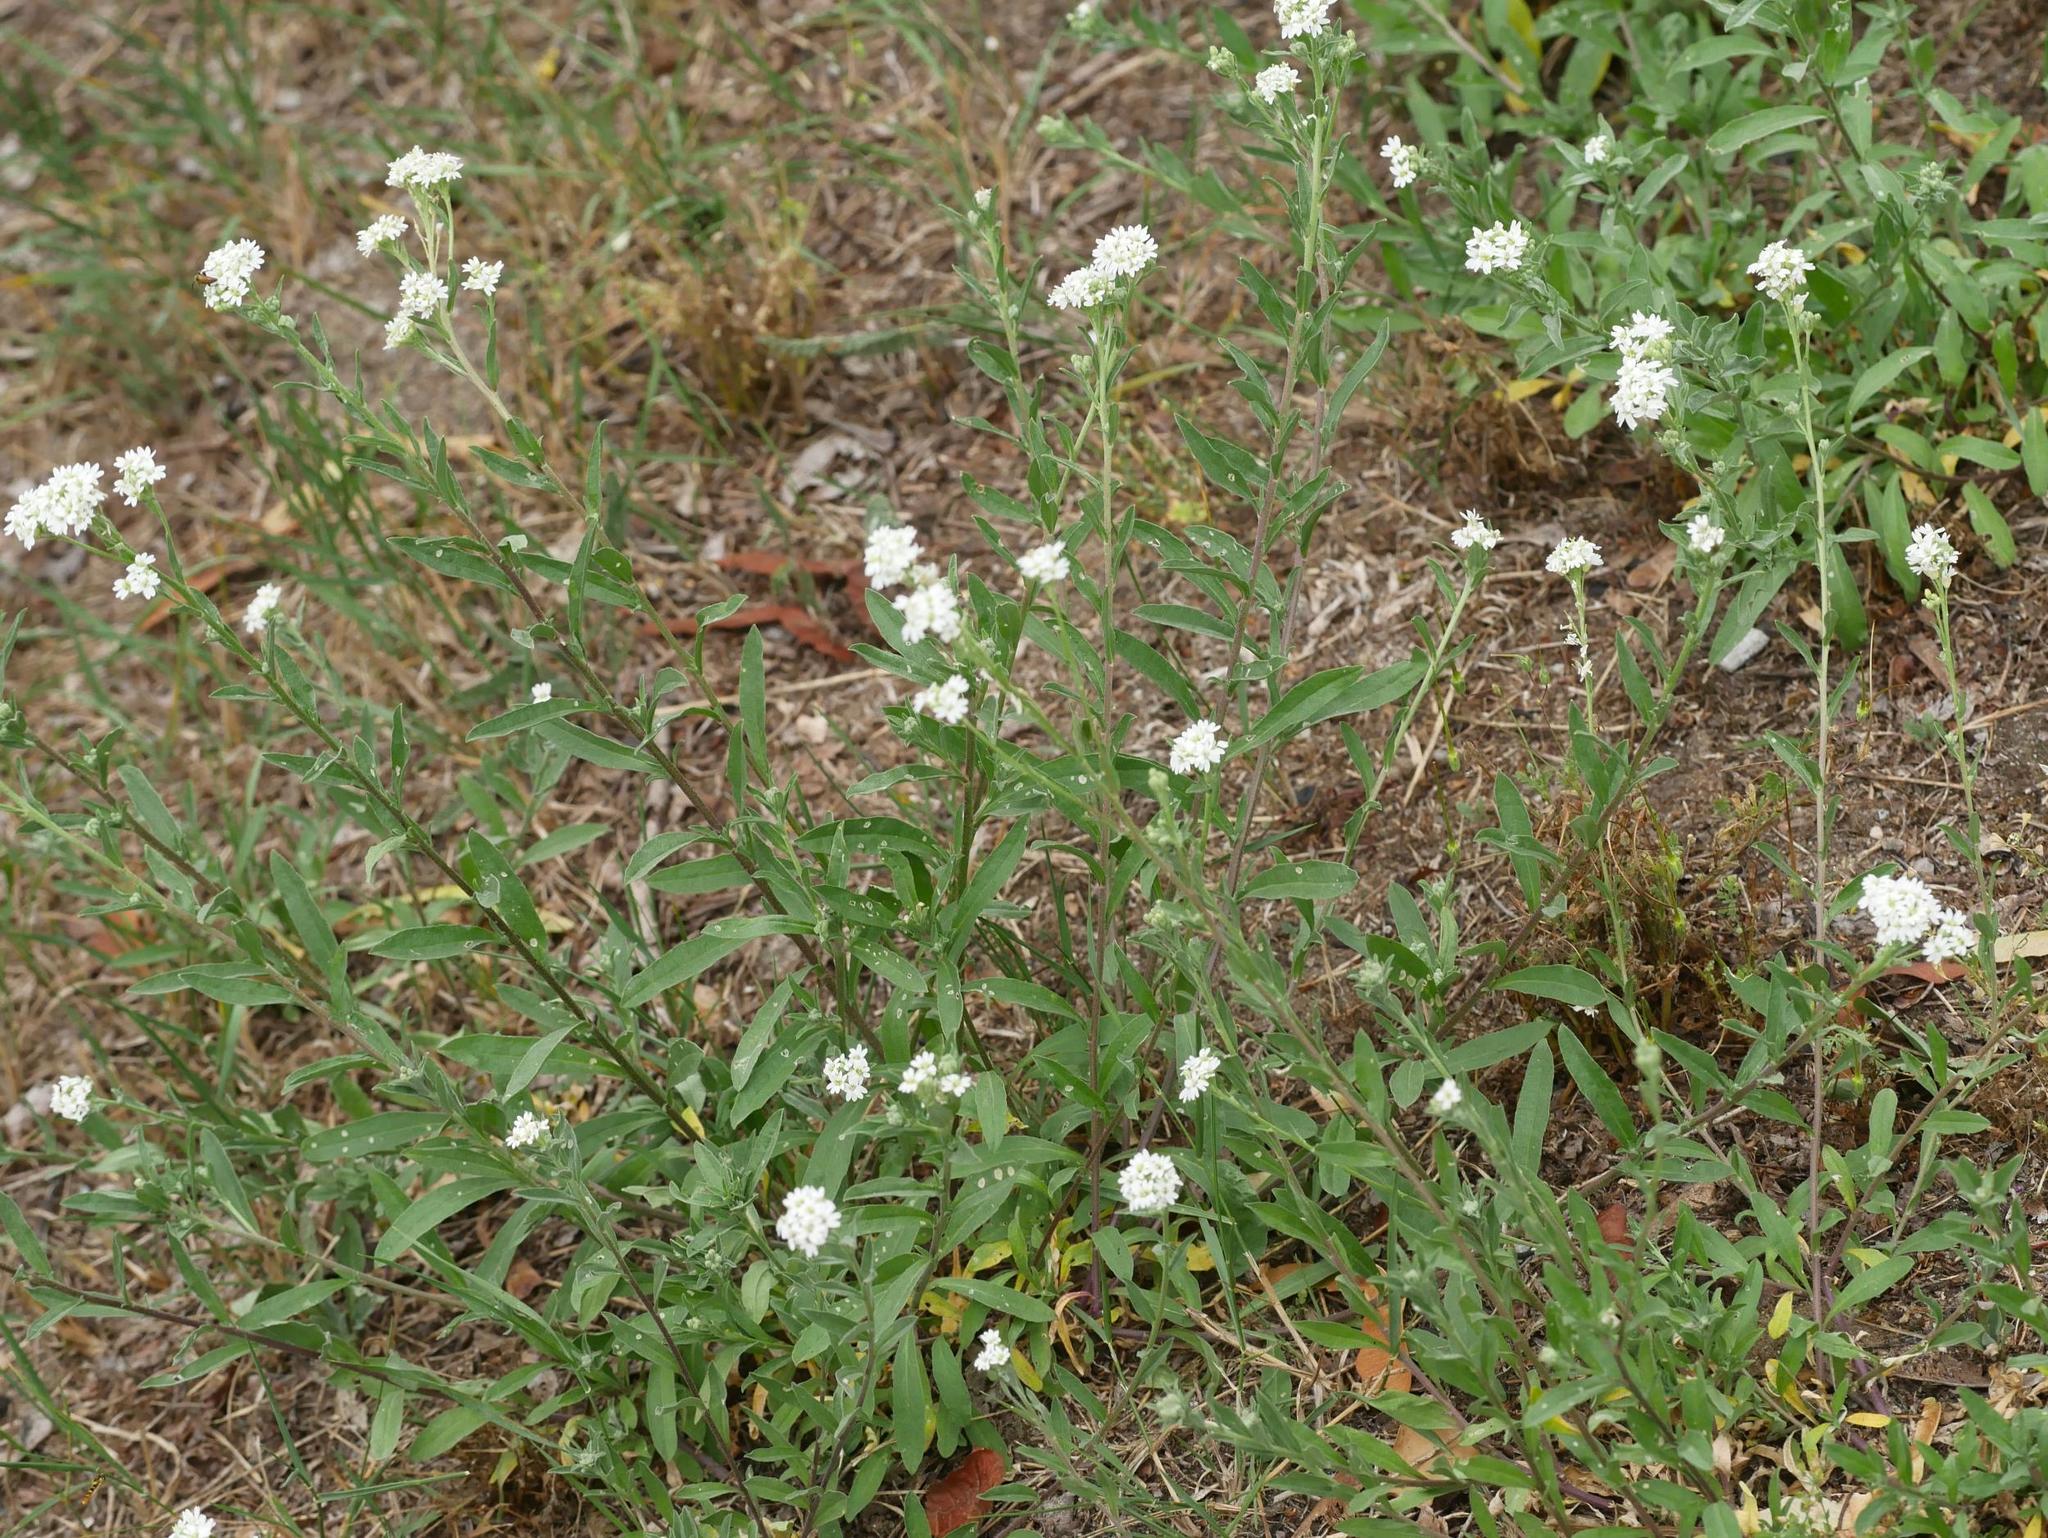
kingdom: Plantae
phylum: Tracheophyta
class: Magnoliopsida
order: Brassicales
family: Brassicaceae
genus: Berteroa
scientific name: Berteroa incana
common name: Hoary alison
